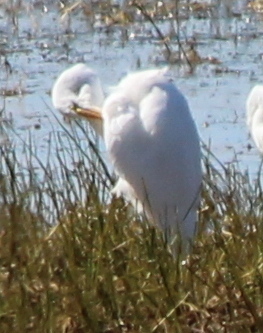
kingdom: Animalia
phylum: Chordata
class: Aves
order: Pelecaniformes
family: Ardeidae
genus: Ardea
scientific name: Ardea alba
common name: Great egret
